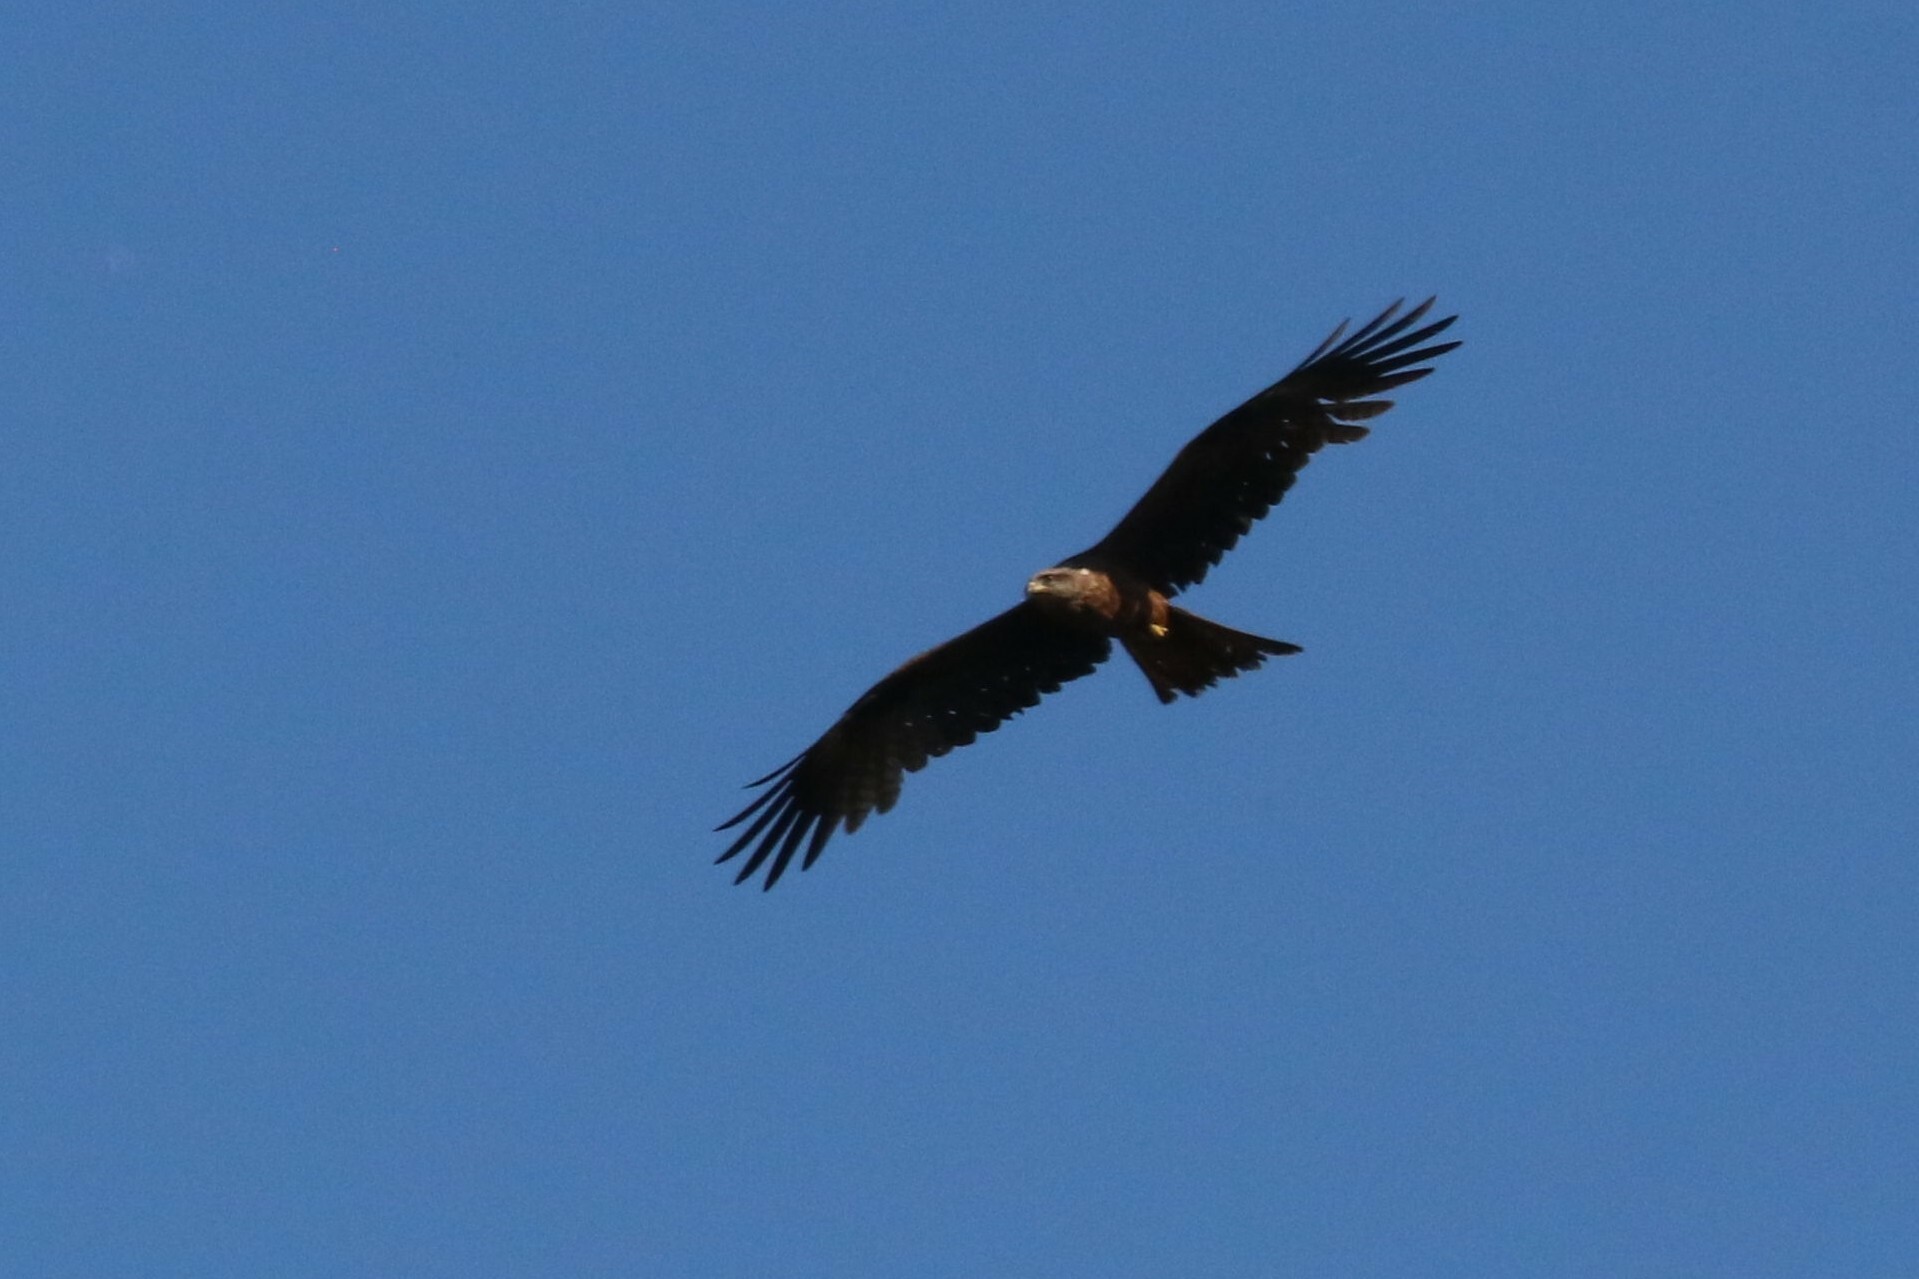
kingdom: Animalia
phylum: Chordata
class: Aves
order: Accipitriformes
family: Accipitridae
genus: Milvus
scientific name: Milvus migrans
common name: Black kite
